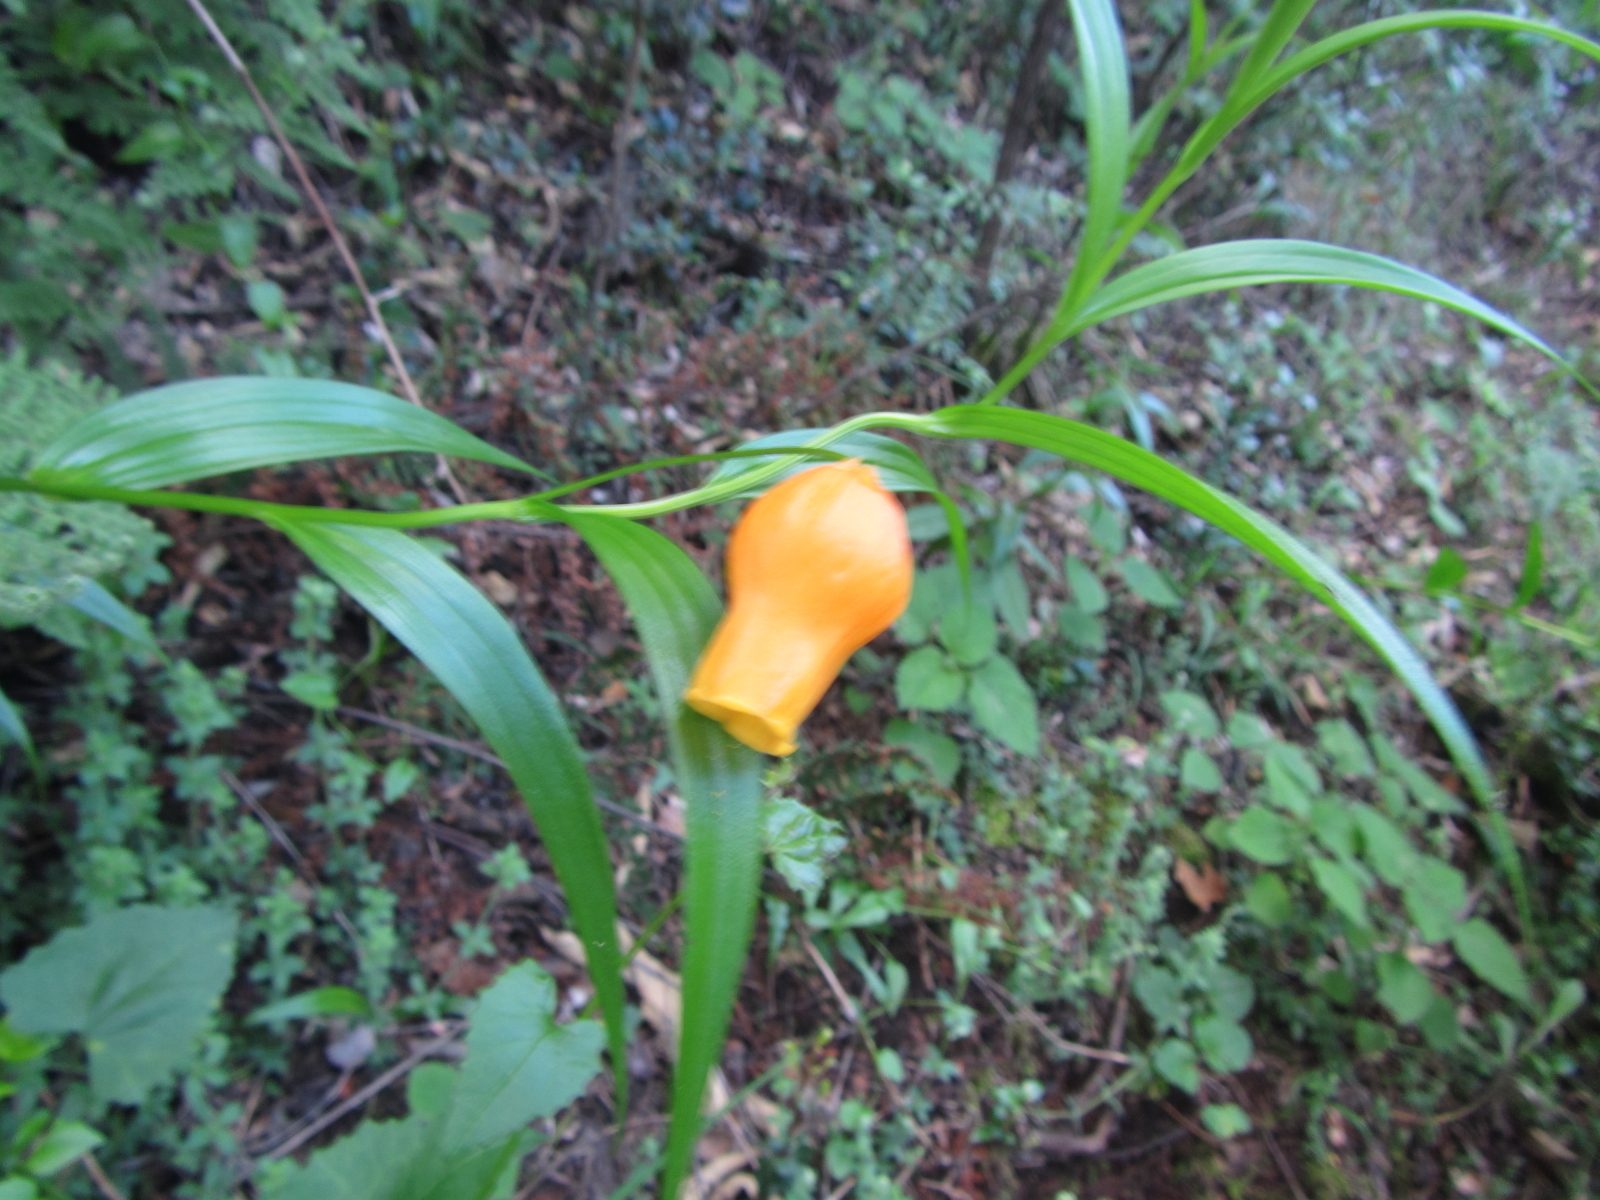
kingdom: Plantae
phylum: Tracheophyta
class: Liliopsida
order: Liliales
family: Colchicaceae
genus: Sandersonia
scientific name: Sandersonia aurantiaca
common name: Chinese-lantern-lily
